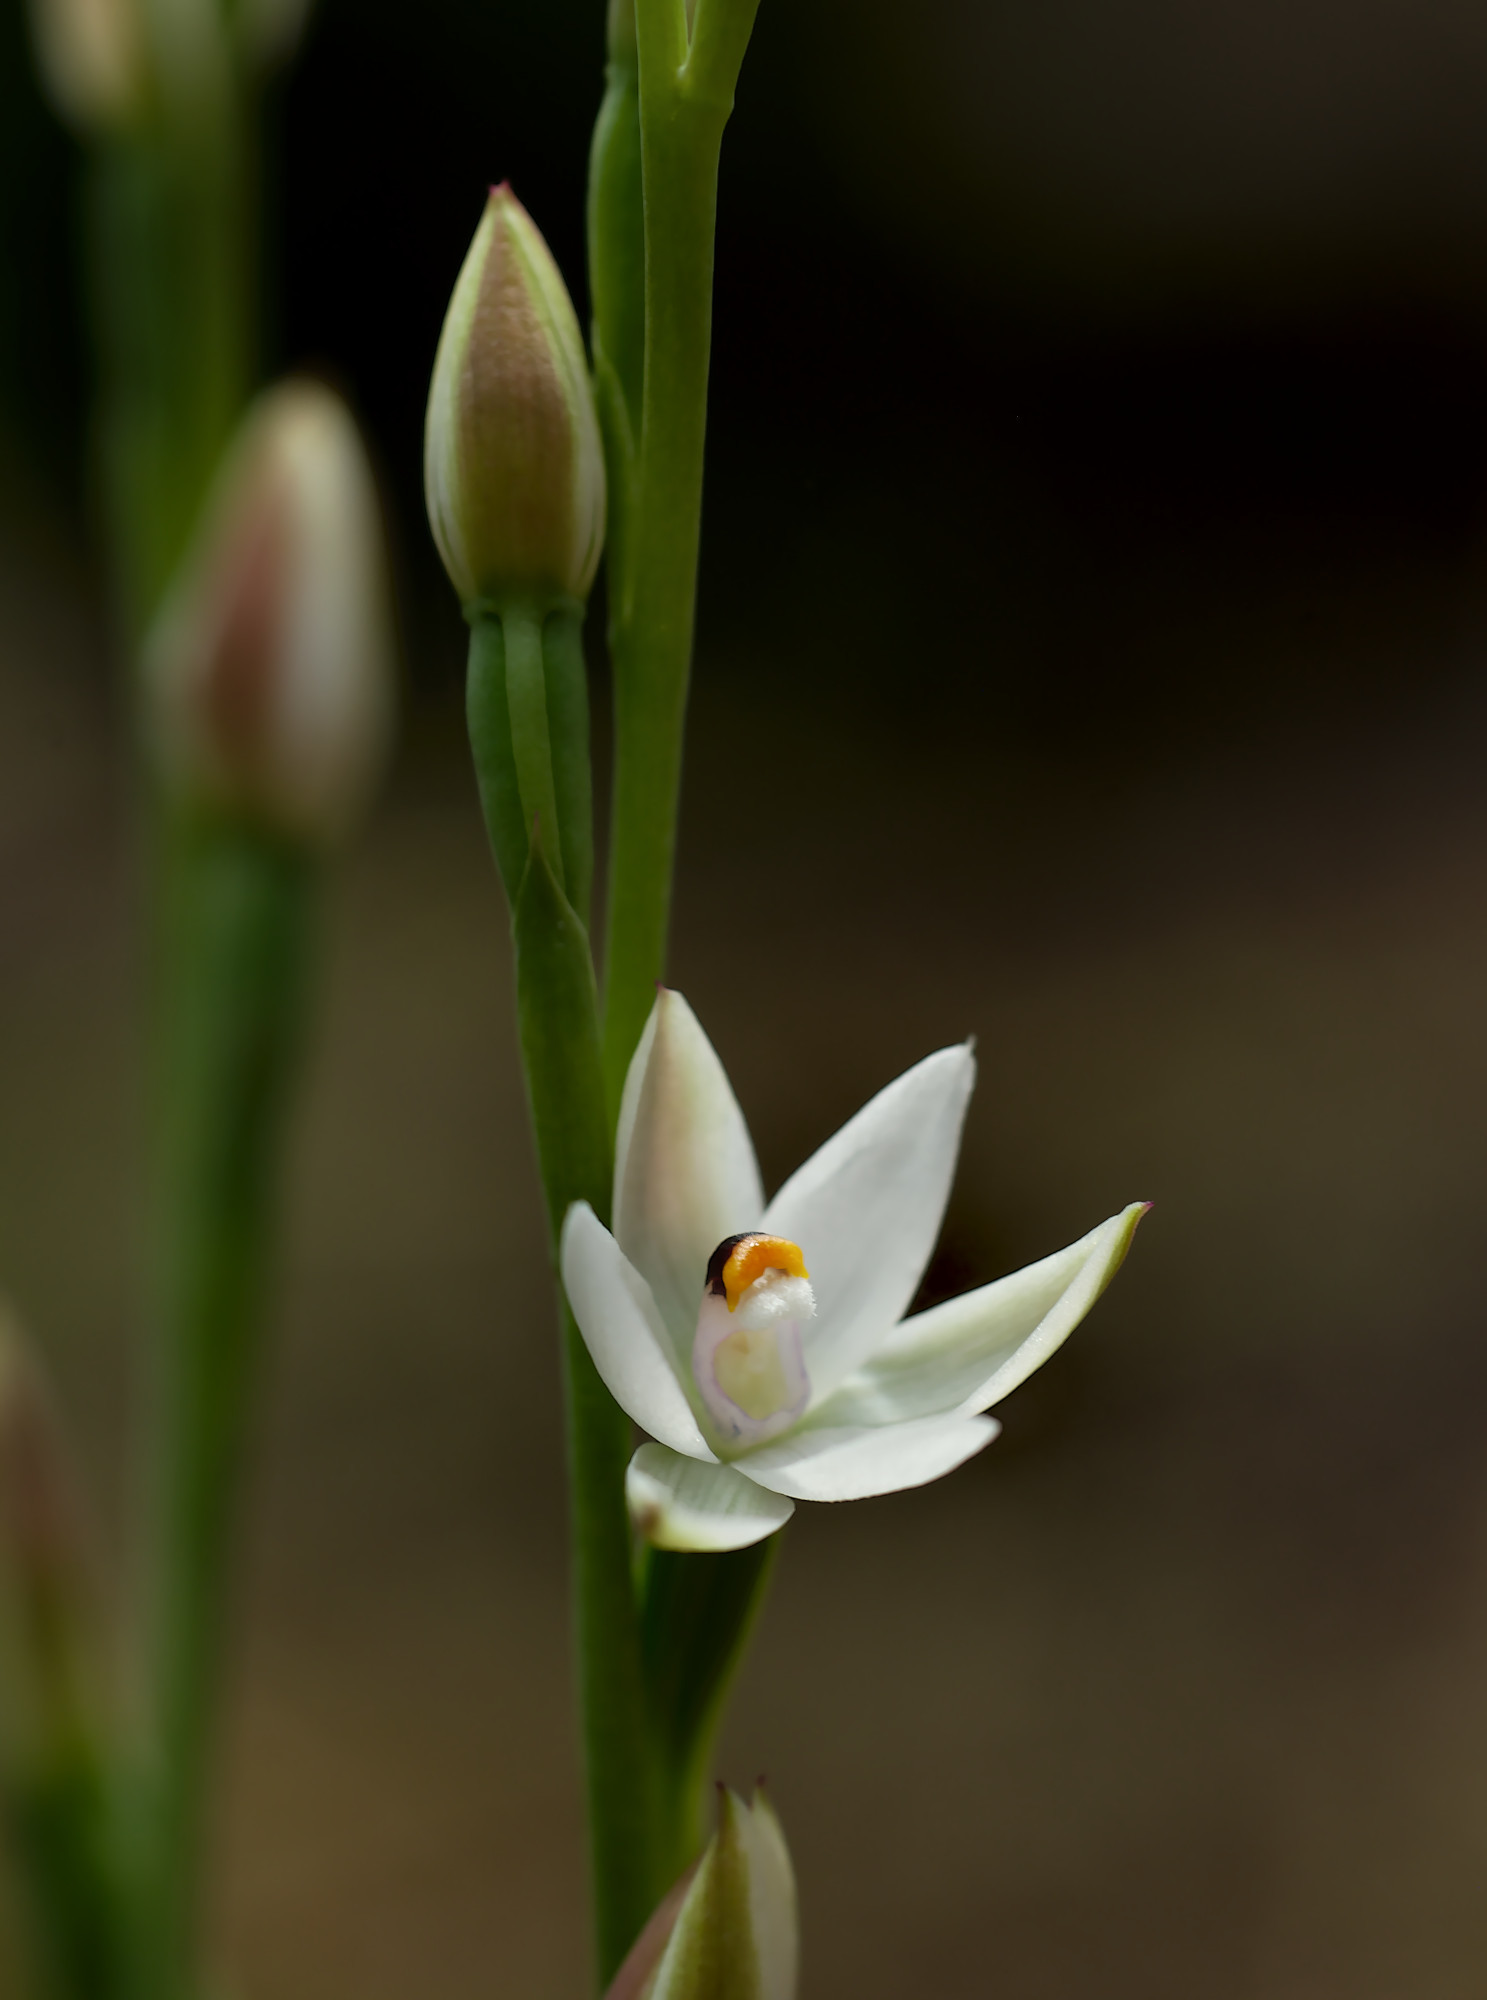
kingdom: Plantae
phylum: Tracheophyta
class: Liliopsida
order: Asparagales
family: Orchidaceae
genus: Thelymitra
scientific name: Thelymitra longifolia
